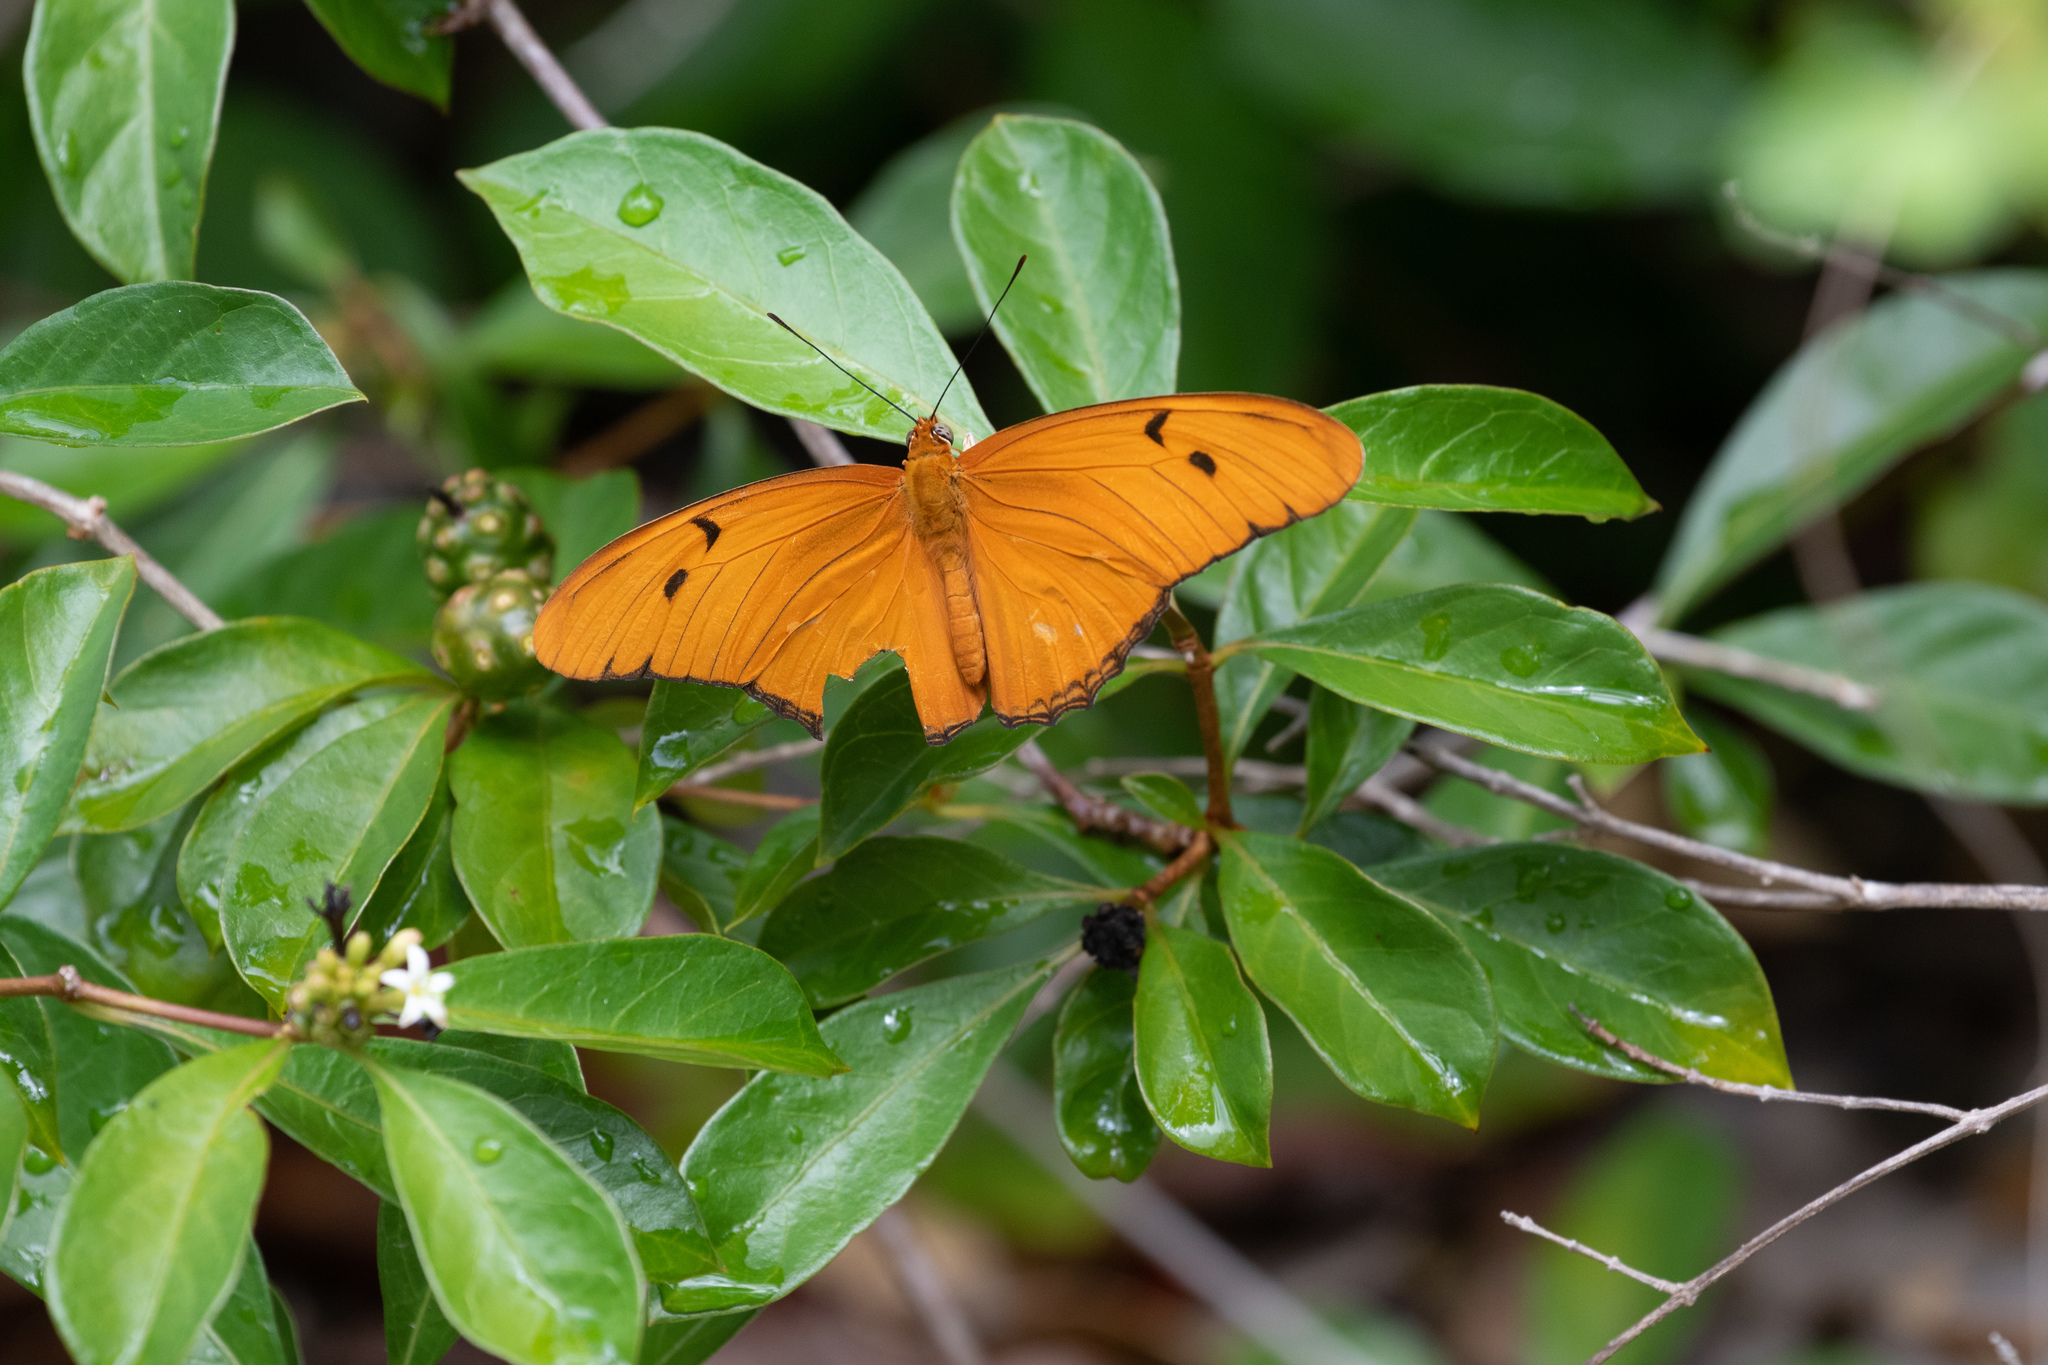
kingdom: Animalia
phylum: Arthropoda
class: Insecta
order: Lepidoptera
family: Nymphalidae
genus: Dryas
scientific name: Dryas iulia
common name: Flambeau
